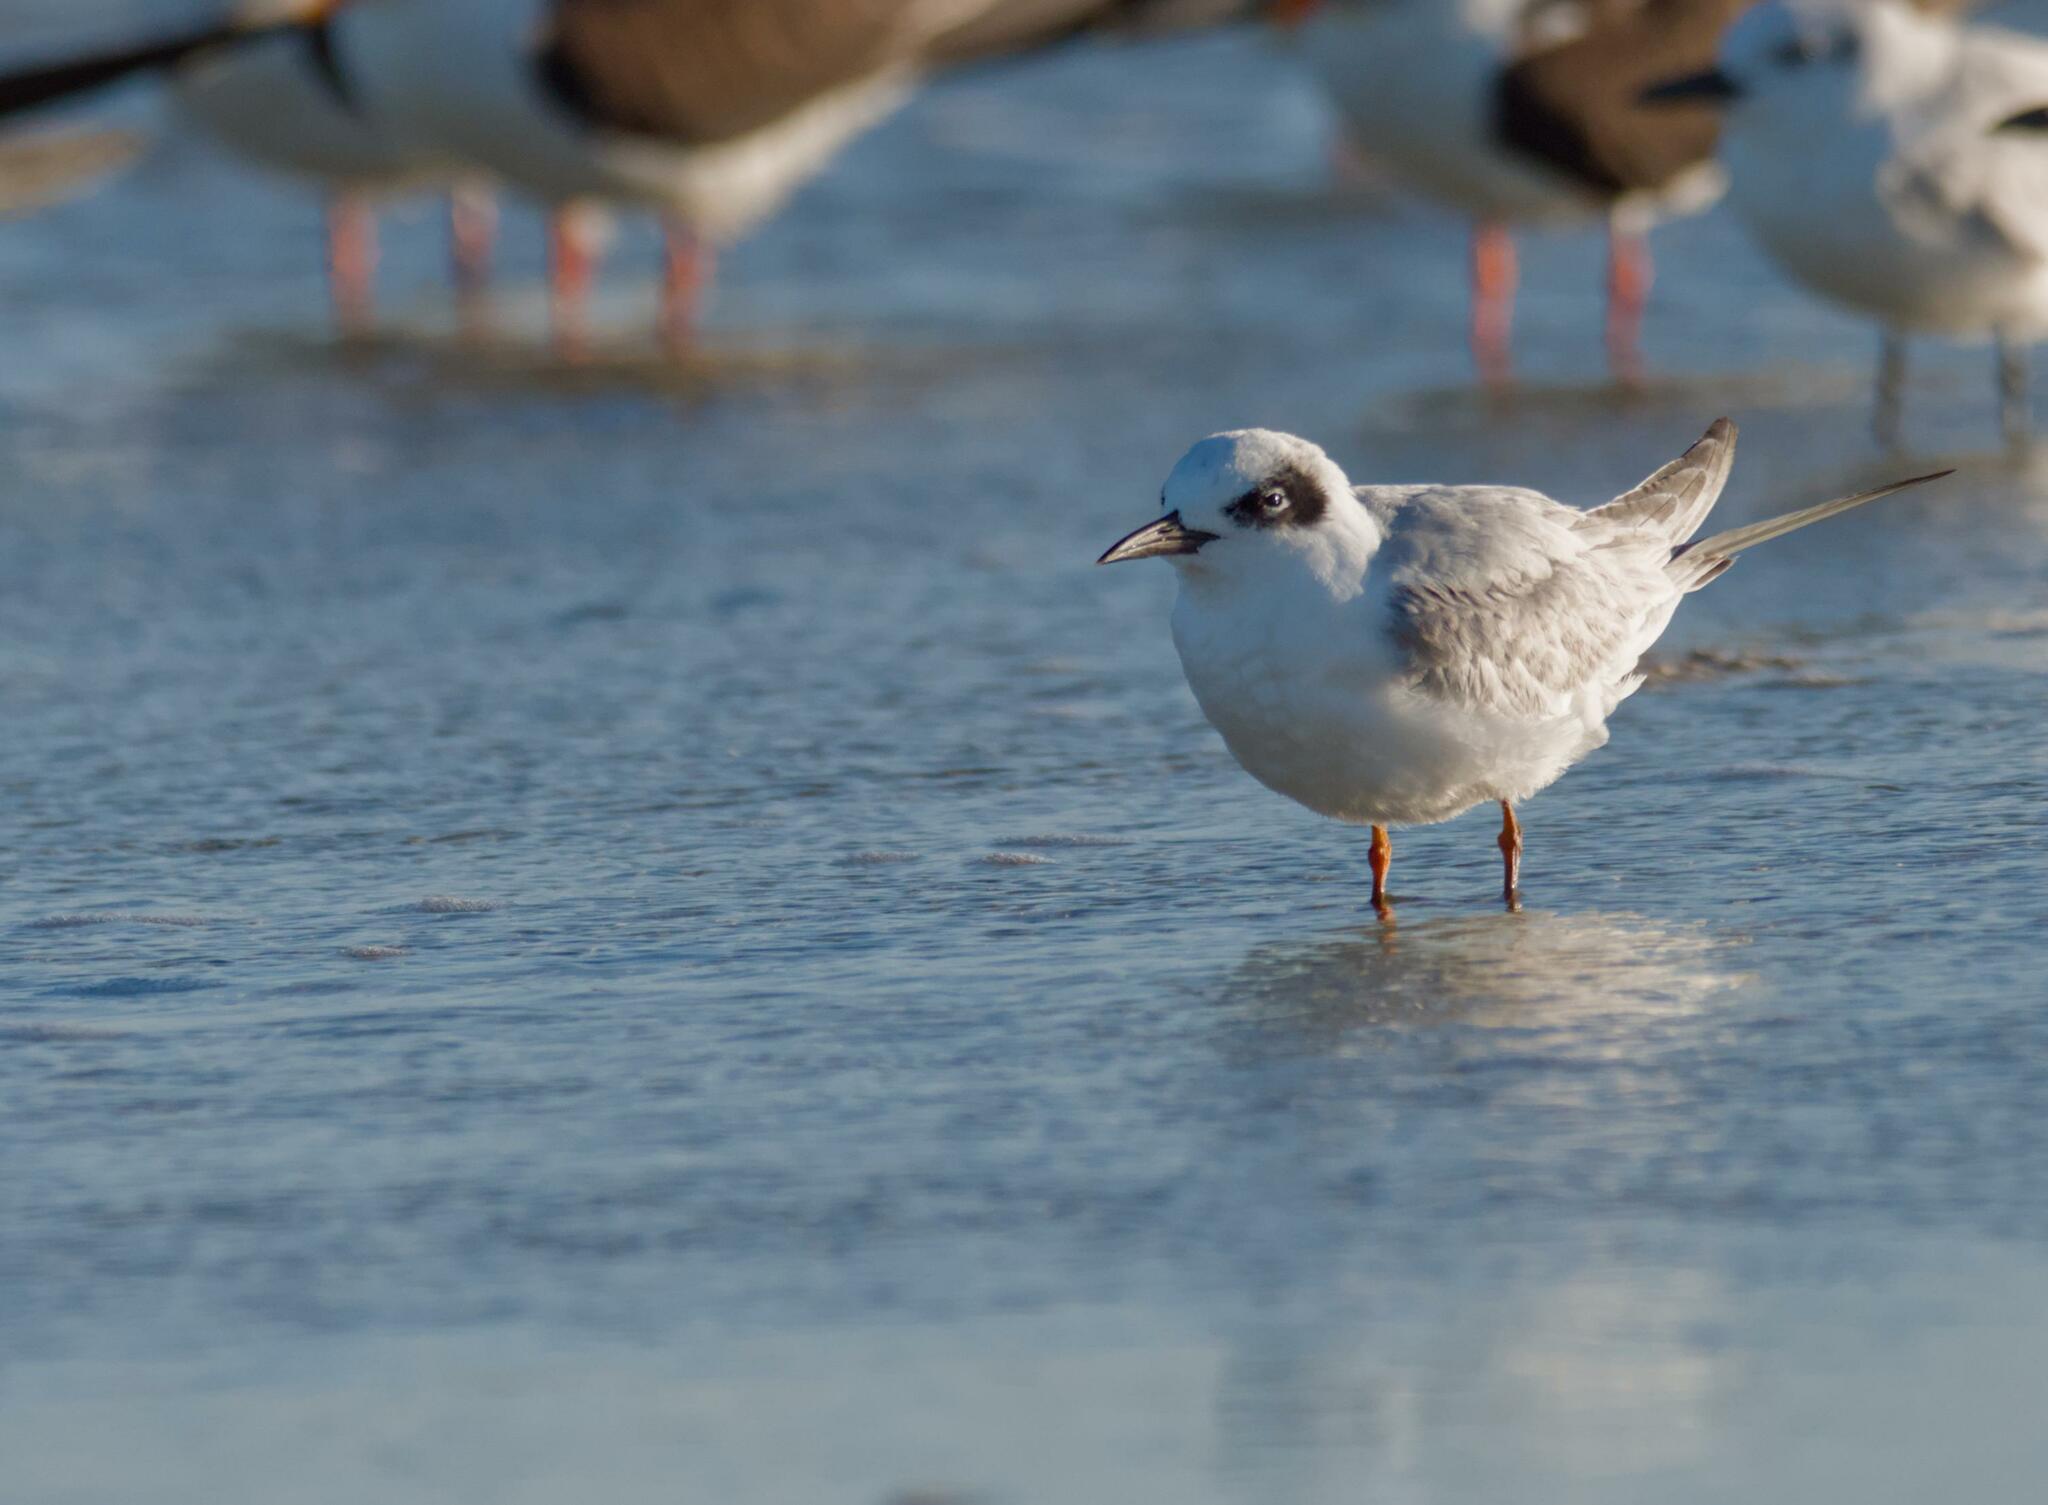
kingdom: Animalia
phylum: Chordata
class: Aves
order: Charadriiformes
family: Laridae
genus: Sterna
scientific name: Sterna forsteri
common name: Forster's tern
